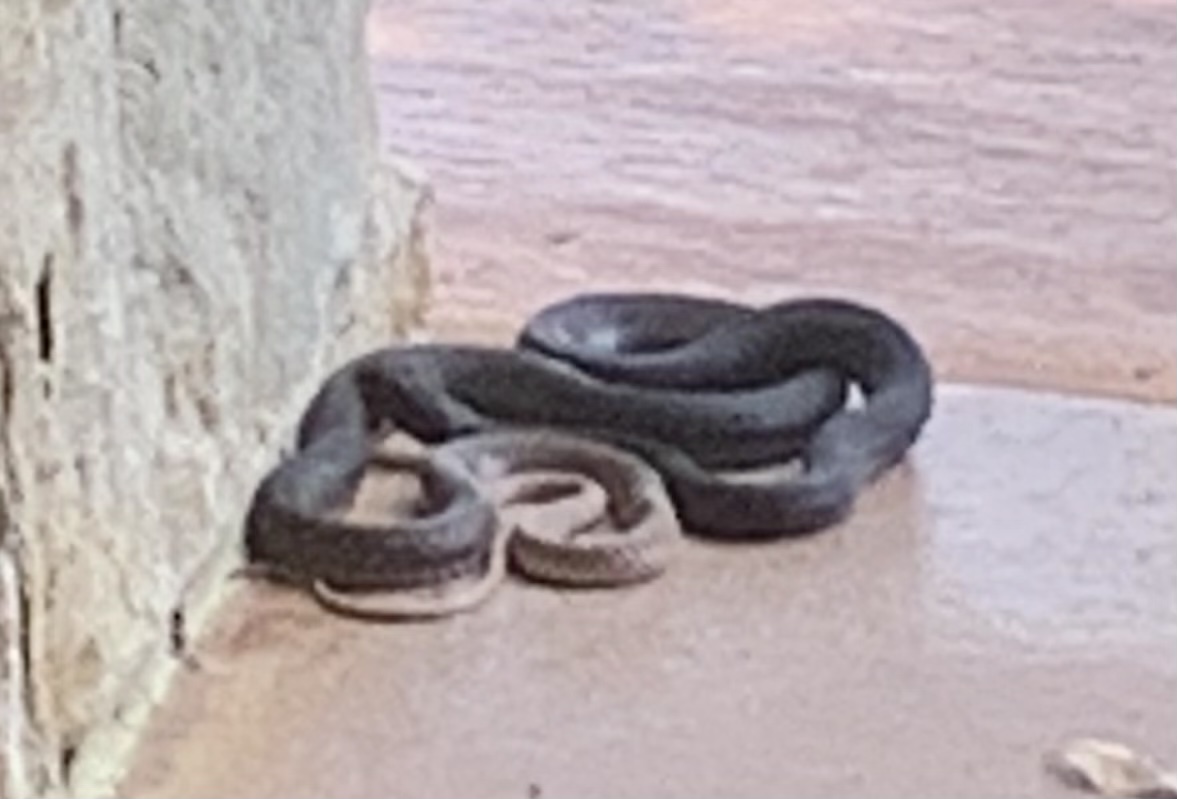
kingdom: Animalia
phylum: Chordata
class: Squamata
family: Colubridae
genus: Masticophis
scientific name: Masticophis flagellum
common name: Coachwhip
